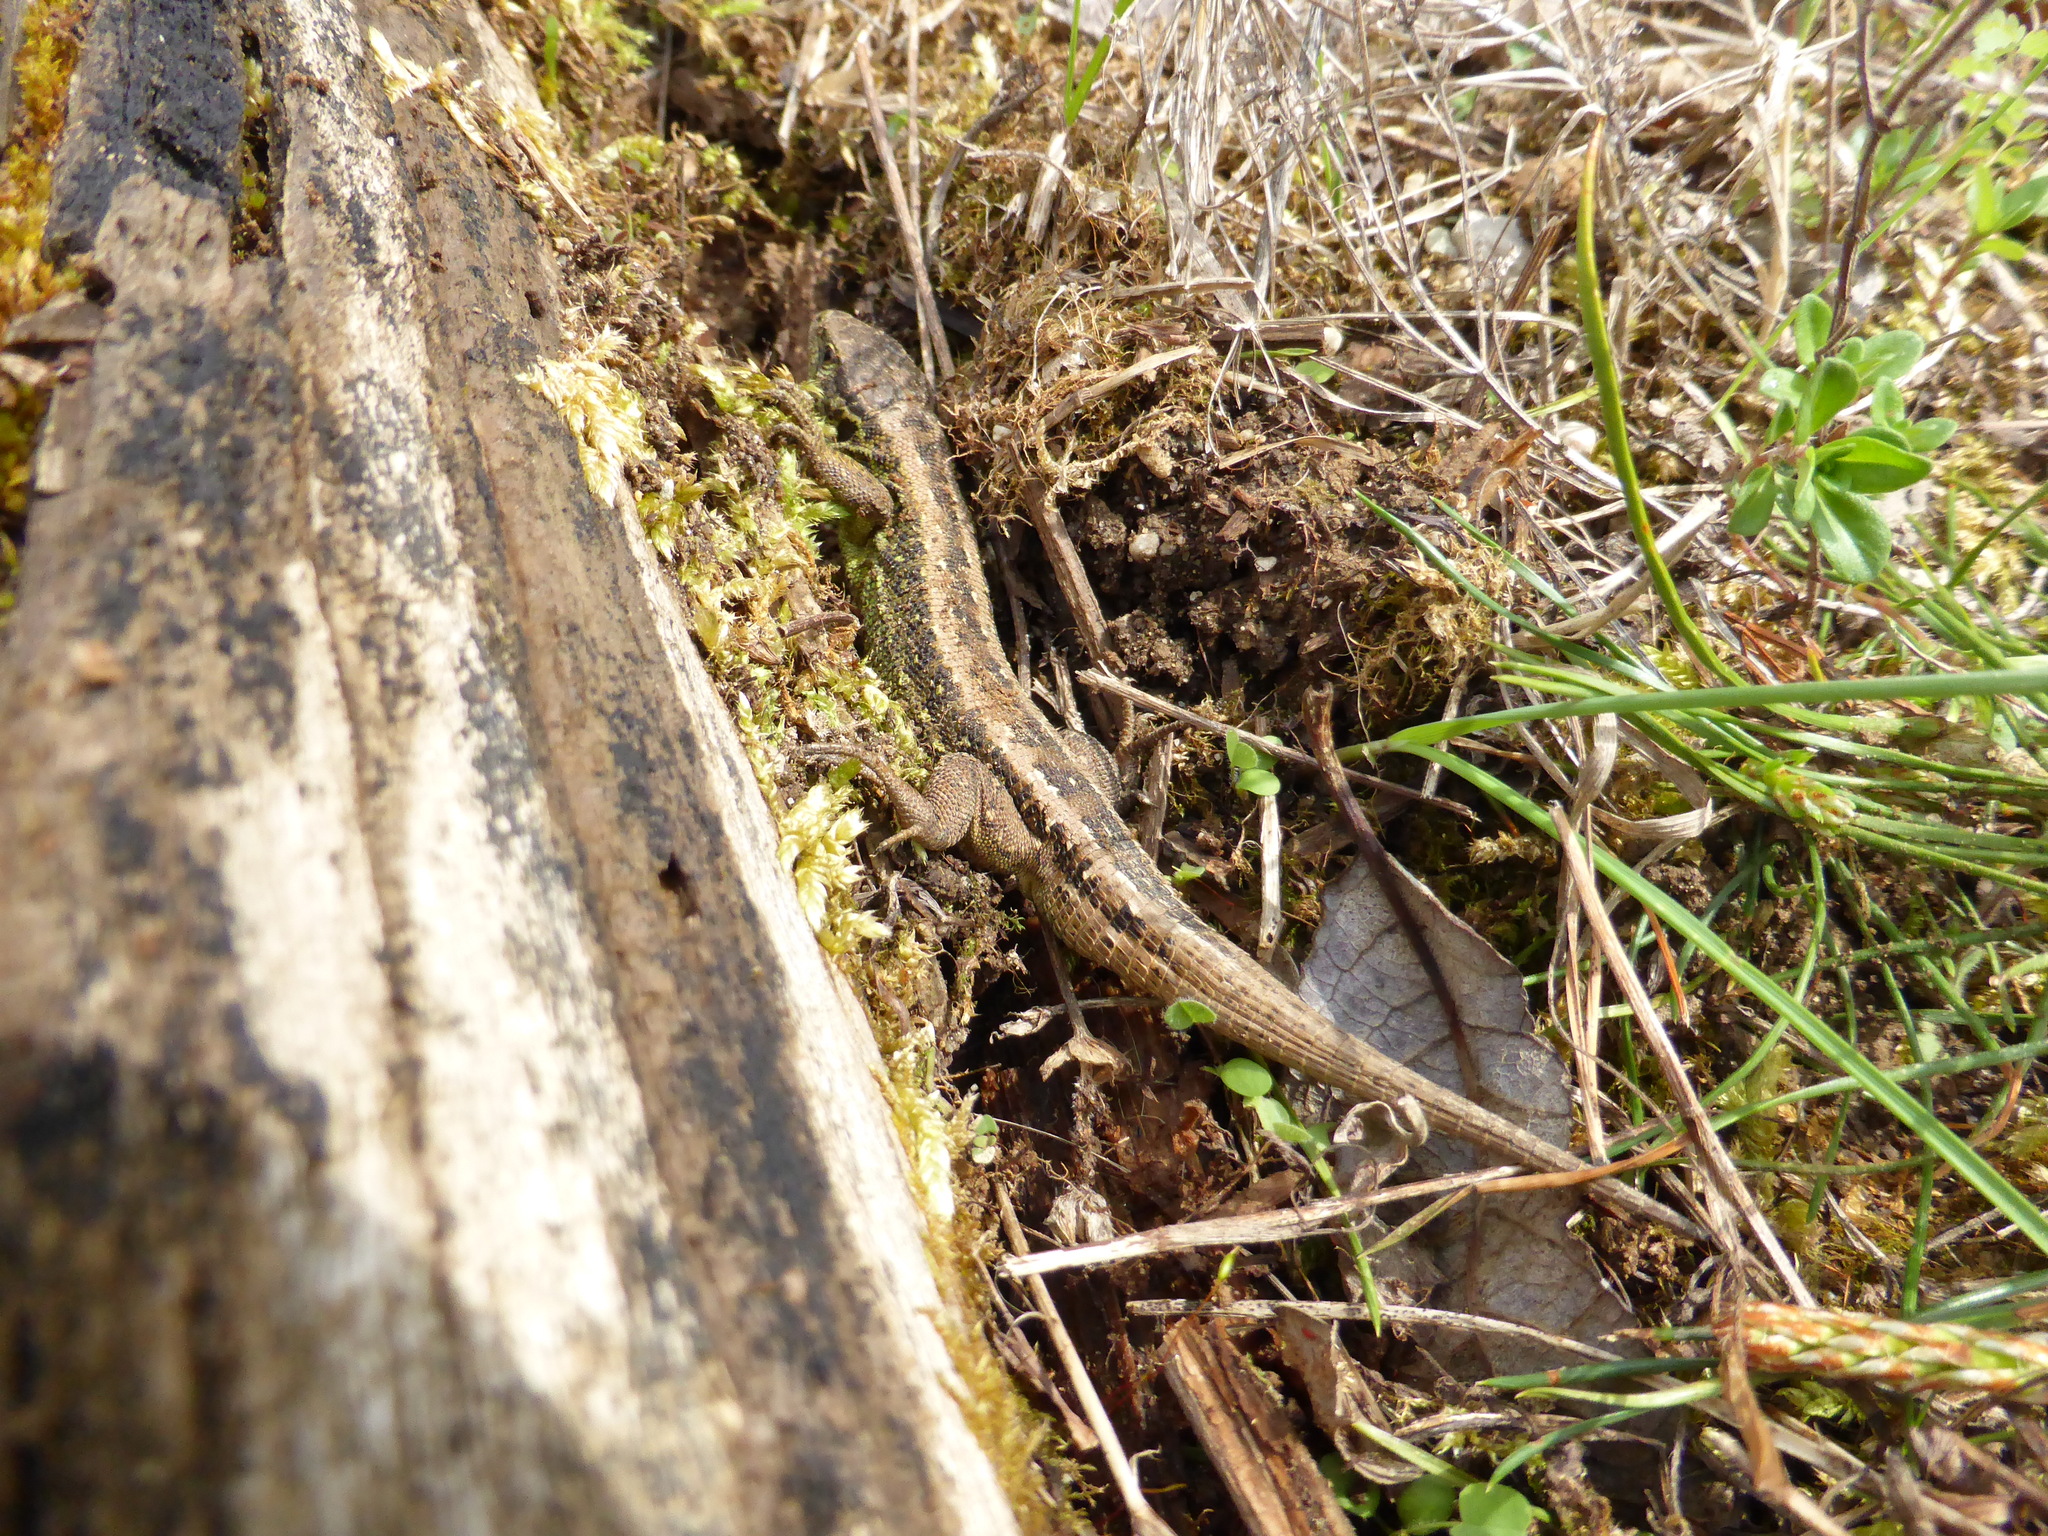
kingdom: Animalia
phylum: Chordata
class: Squamata
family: Lacertidae
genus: Lacerta
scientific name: Lacerta agilis
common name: Sand lizard
